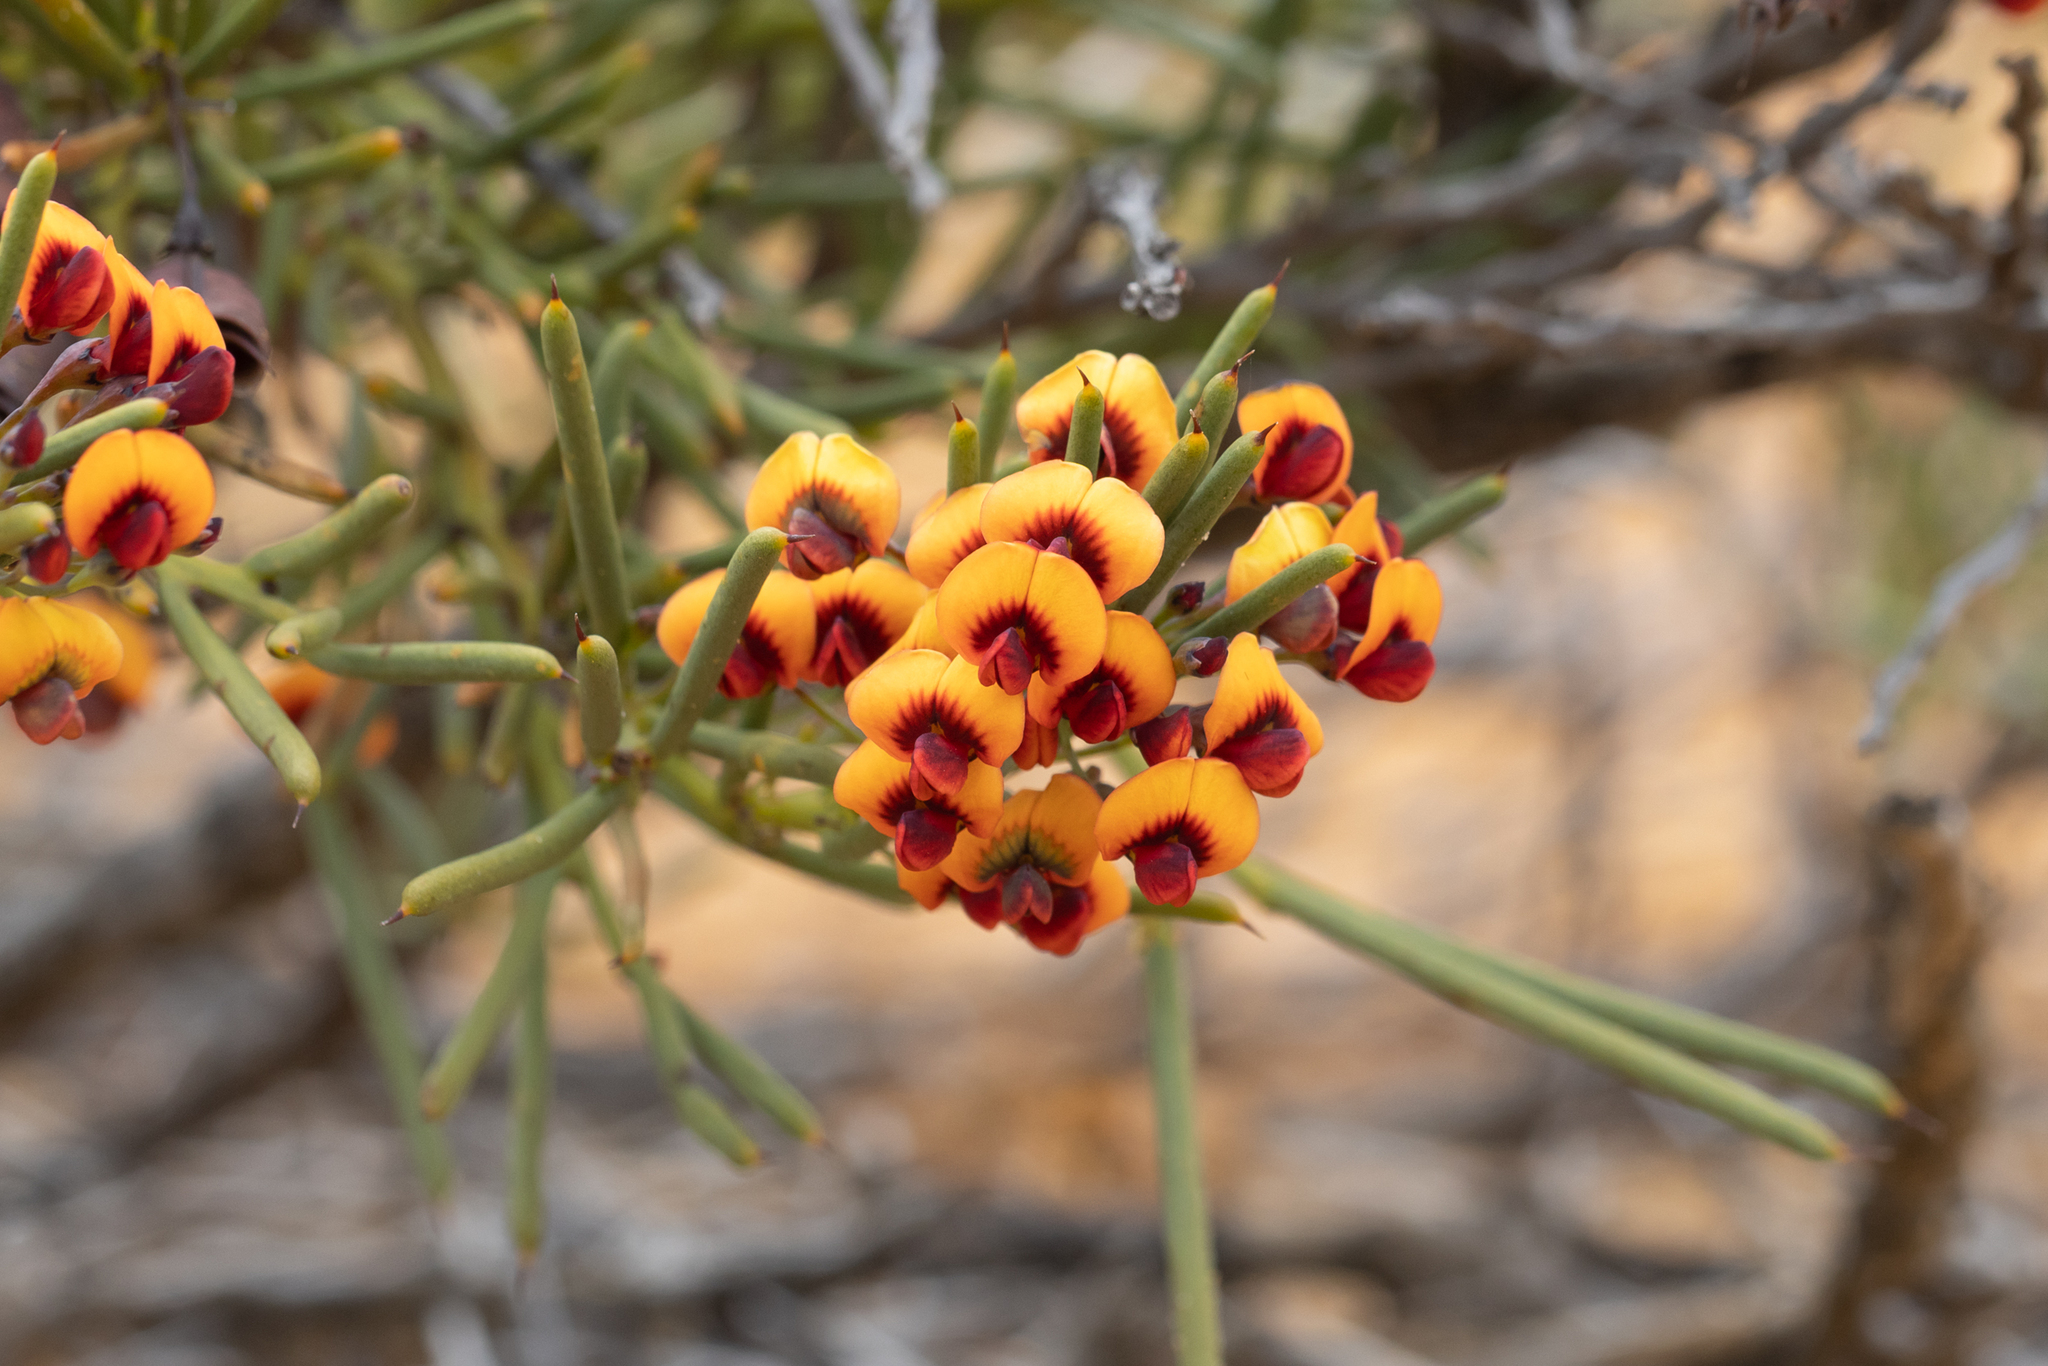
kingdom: Plantae
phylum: Tracheophyta
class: Magnoliopsida
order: Fabales
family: Fabaceae
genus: Daviesia
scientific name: Daviesia teretifolia
